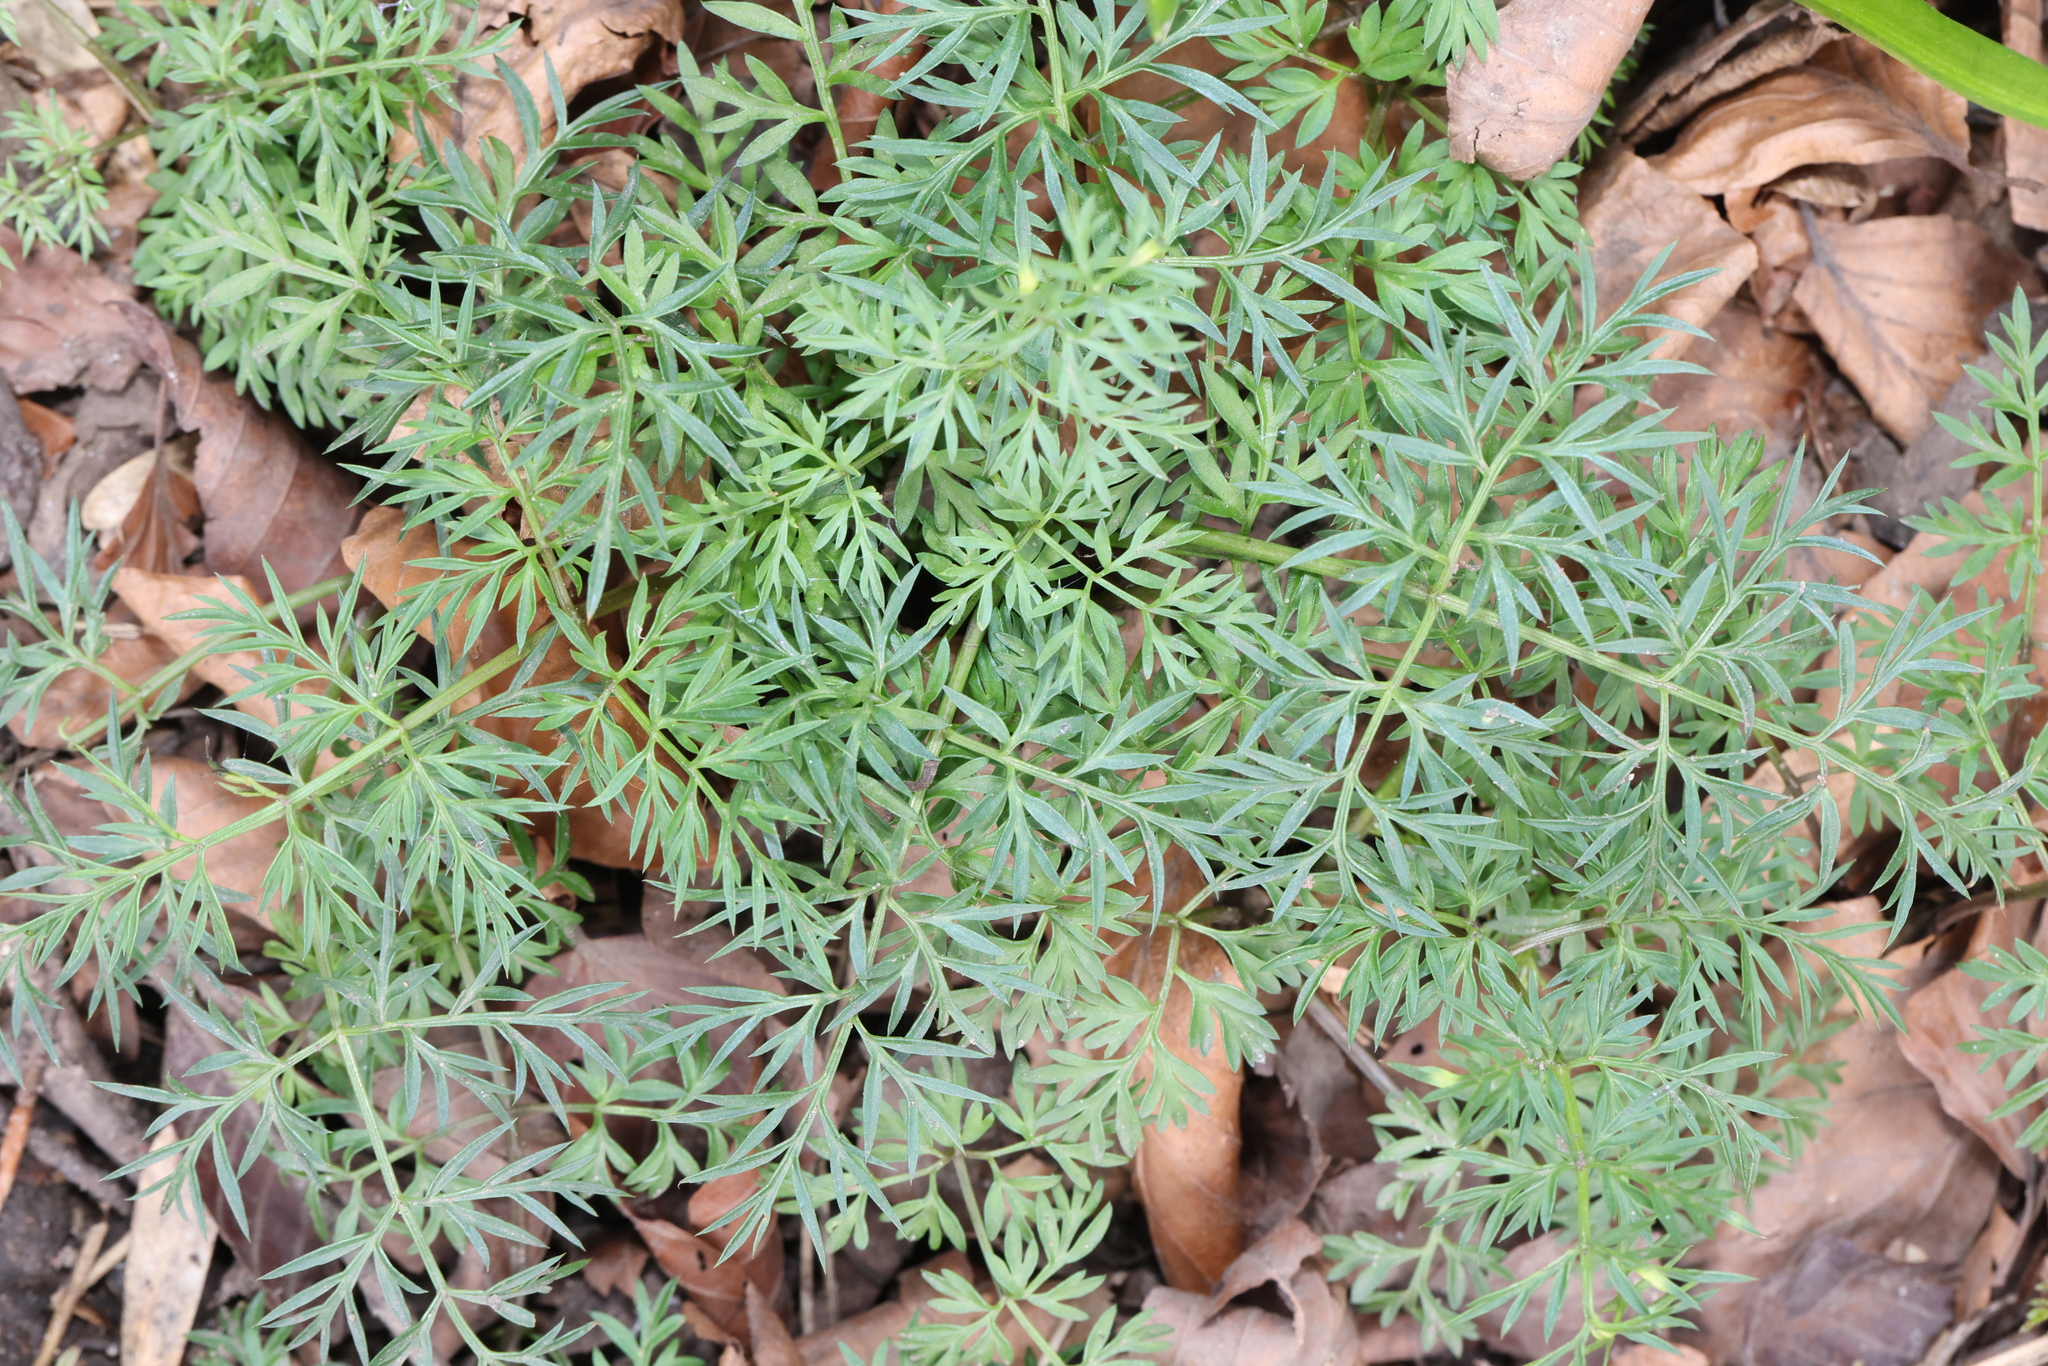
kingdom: Plantae
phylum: Tracheophyta
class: Magnoliopsida
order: Apiales
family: Apiaceae
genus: Conopodium
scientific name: Conopodium majus
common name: Pignut
